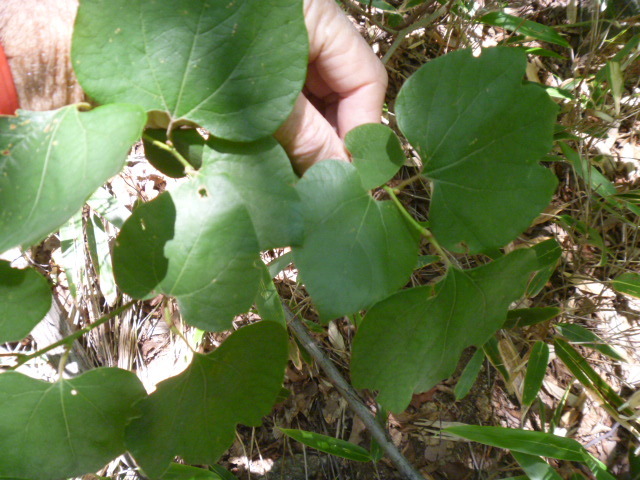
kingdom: Plantae
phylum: Tracheophyta
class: Magnoliopsida
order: Laurales
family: Lauraceae
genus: Lindera
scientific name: Lindera obtusiloba
